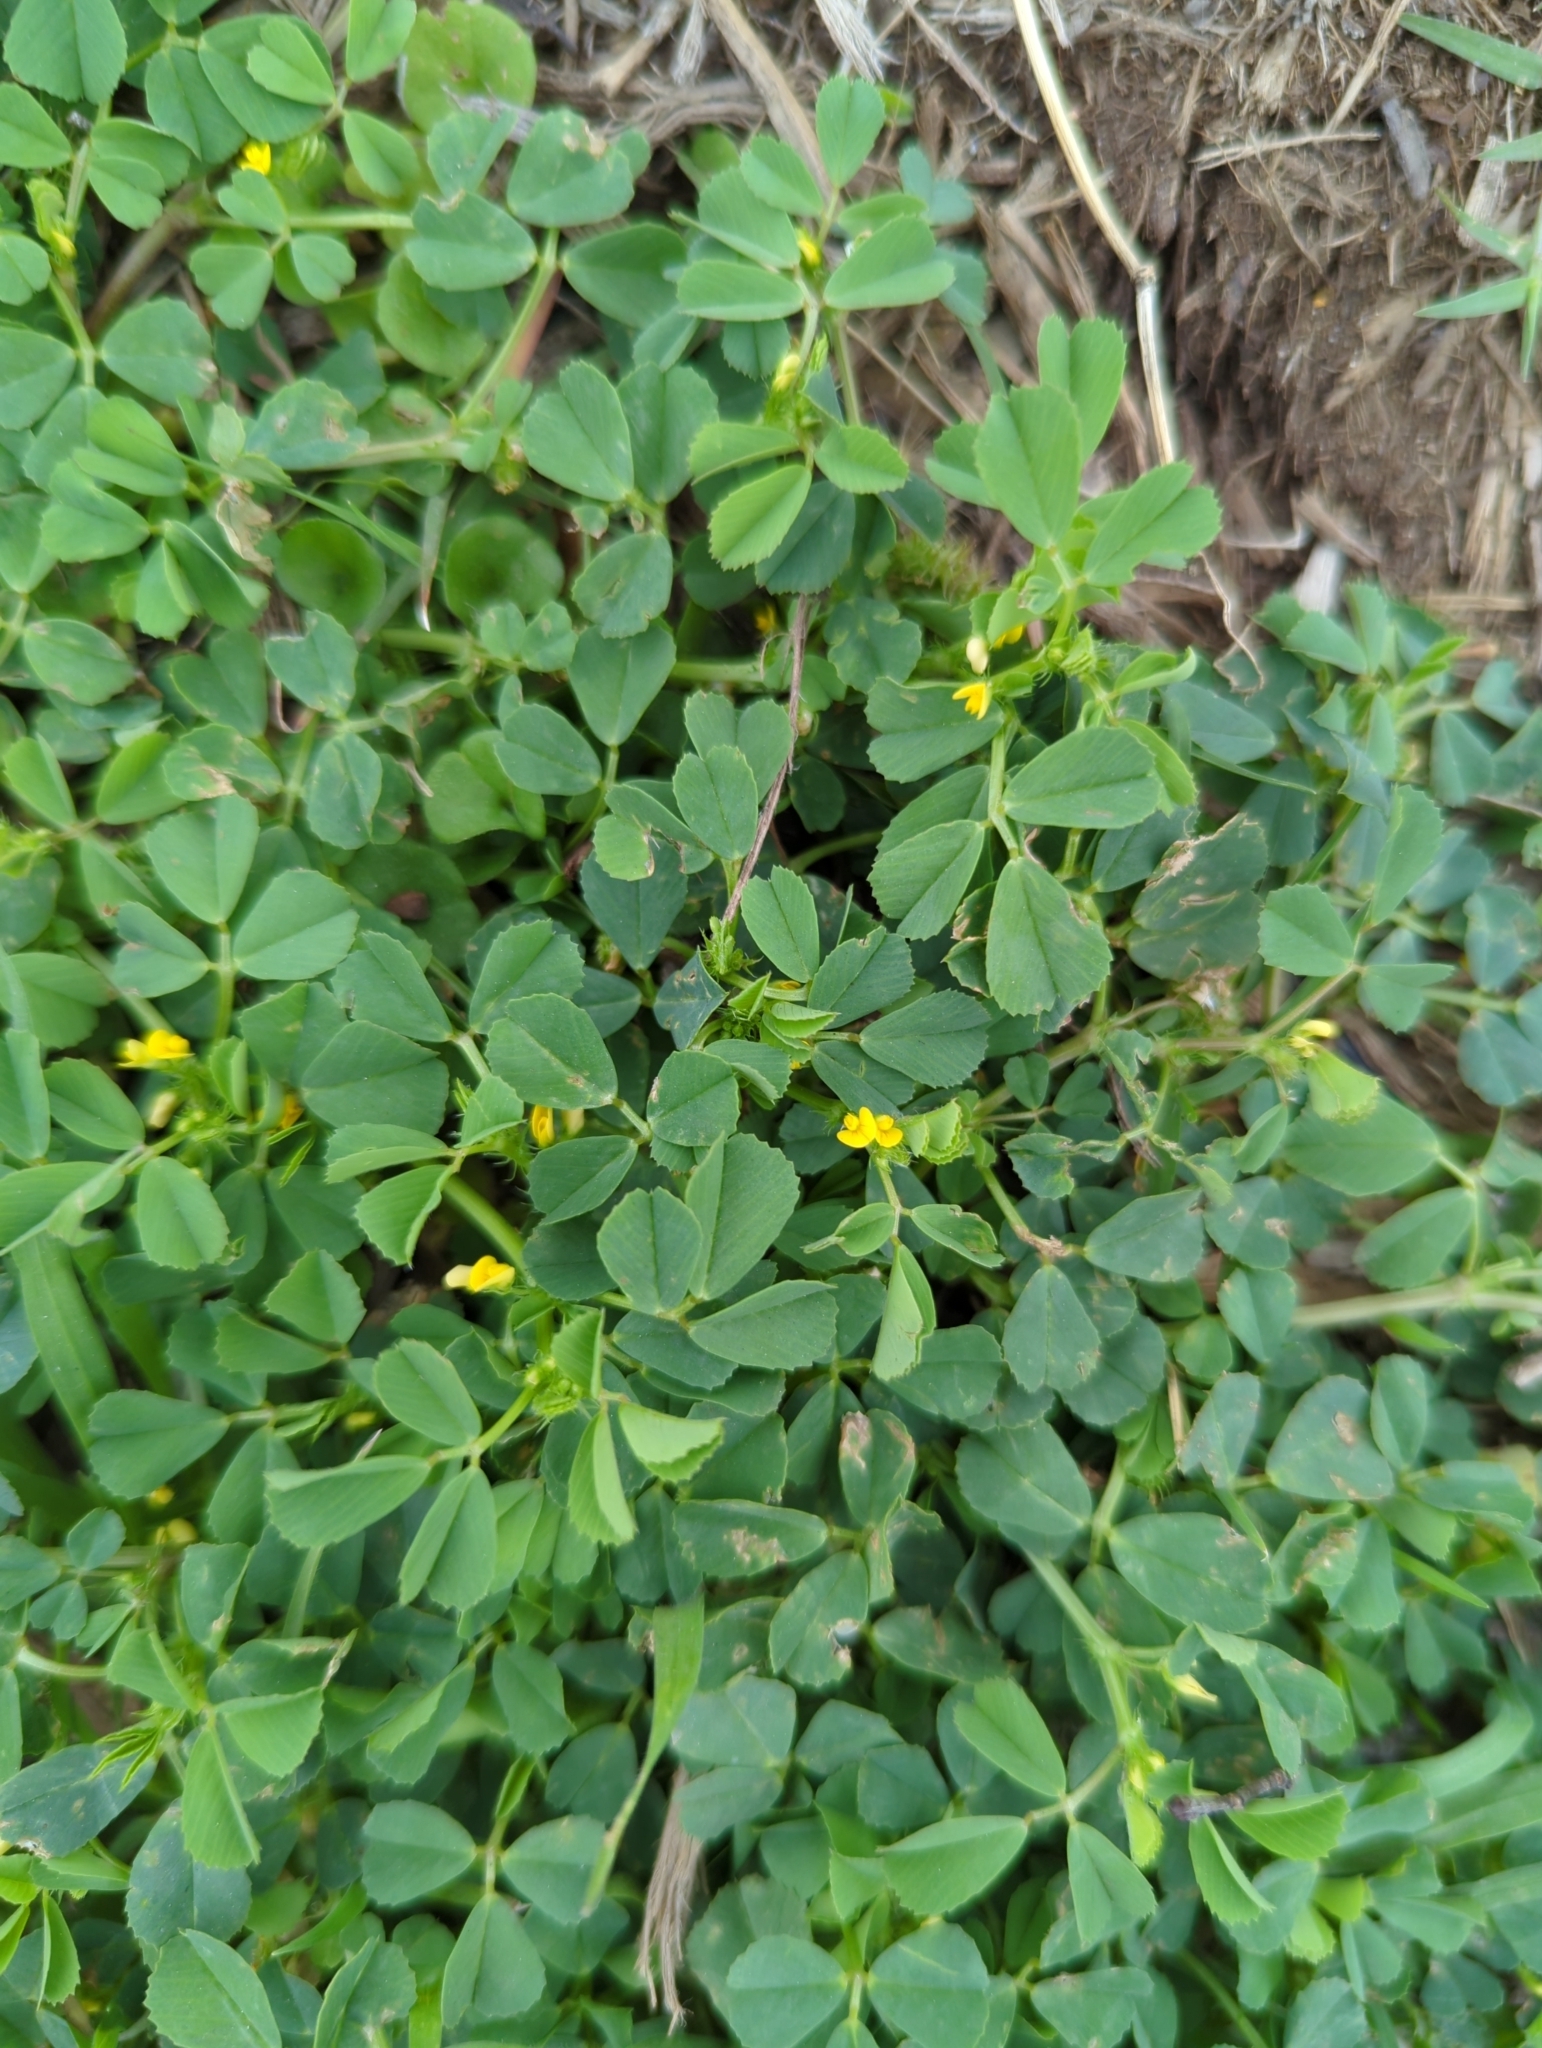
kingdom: Plantae
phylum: Tracheophyta
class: Magnoliopsida
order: Fabales
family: Fabaceae
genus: Medicago
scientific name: Medicago polymorpha
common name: Burclover
